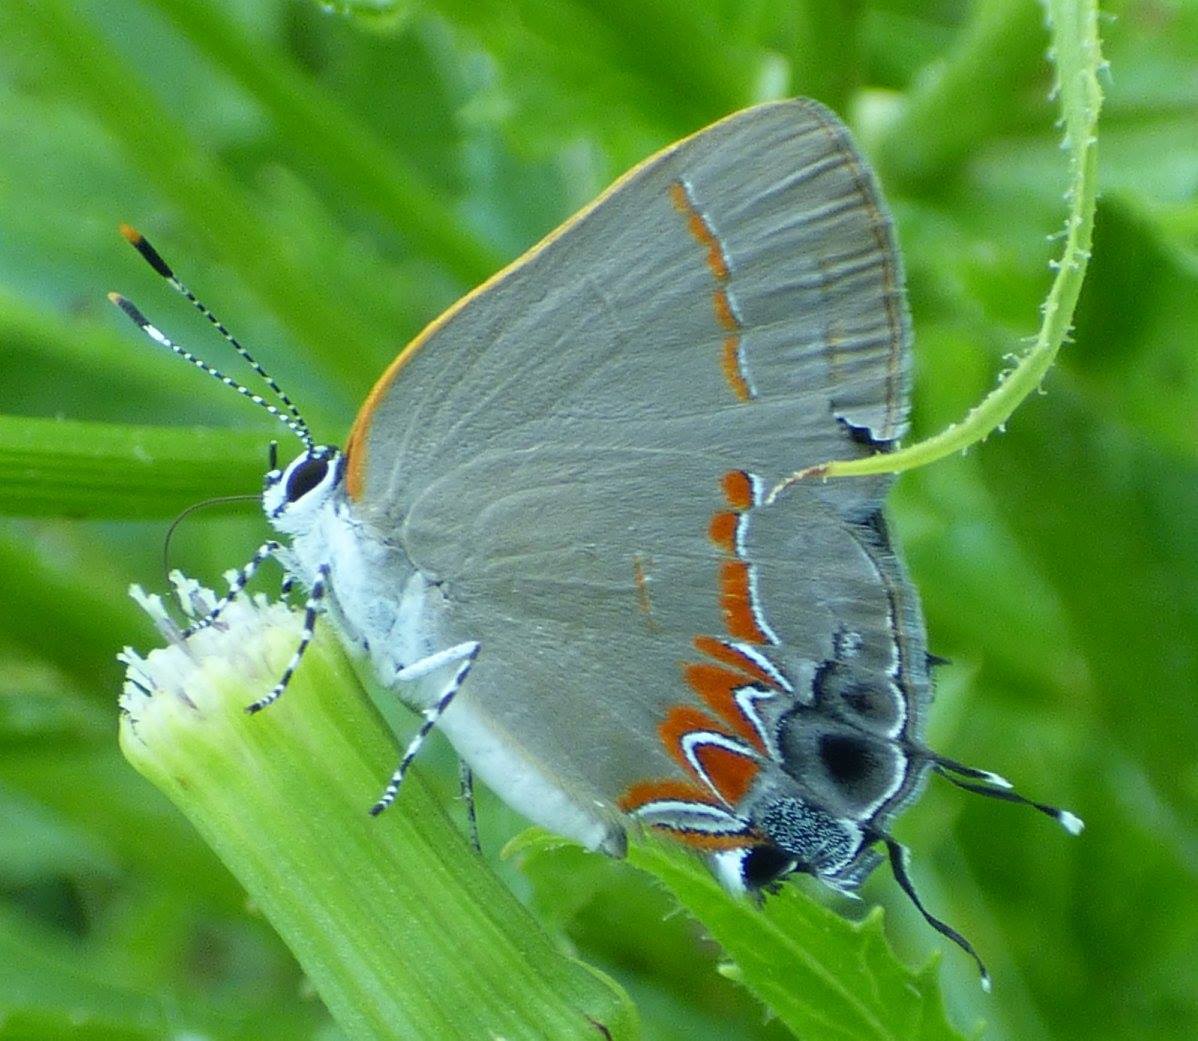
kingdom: Animalia
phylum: Arthropoda
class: Insecta
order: Lepidoptera
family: Lycaenidae
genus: Calycopis
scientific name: Calycopis cecrops
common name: Red-banded hairstreak
